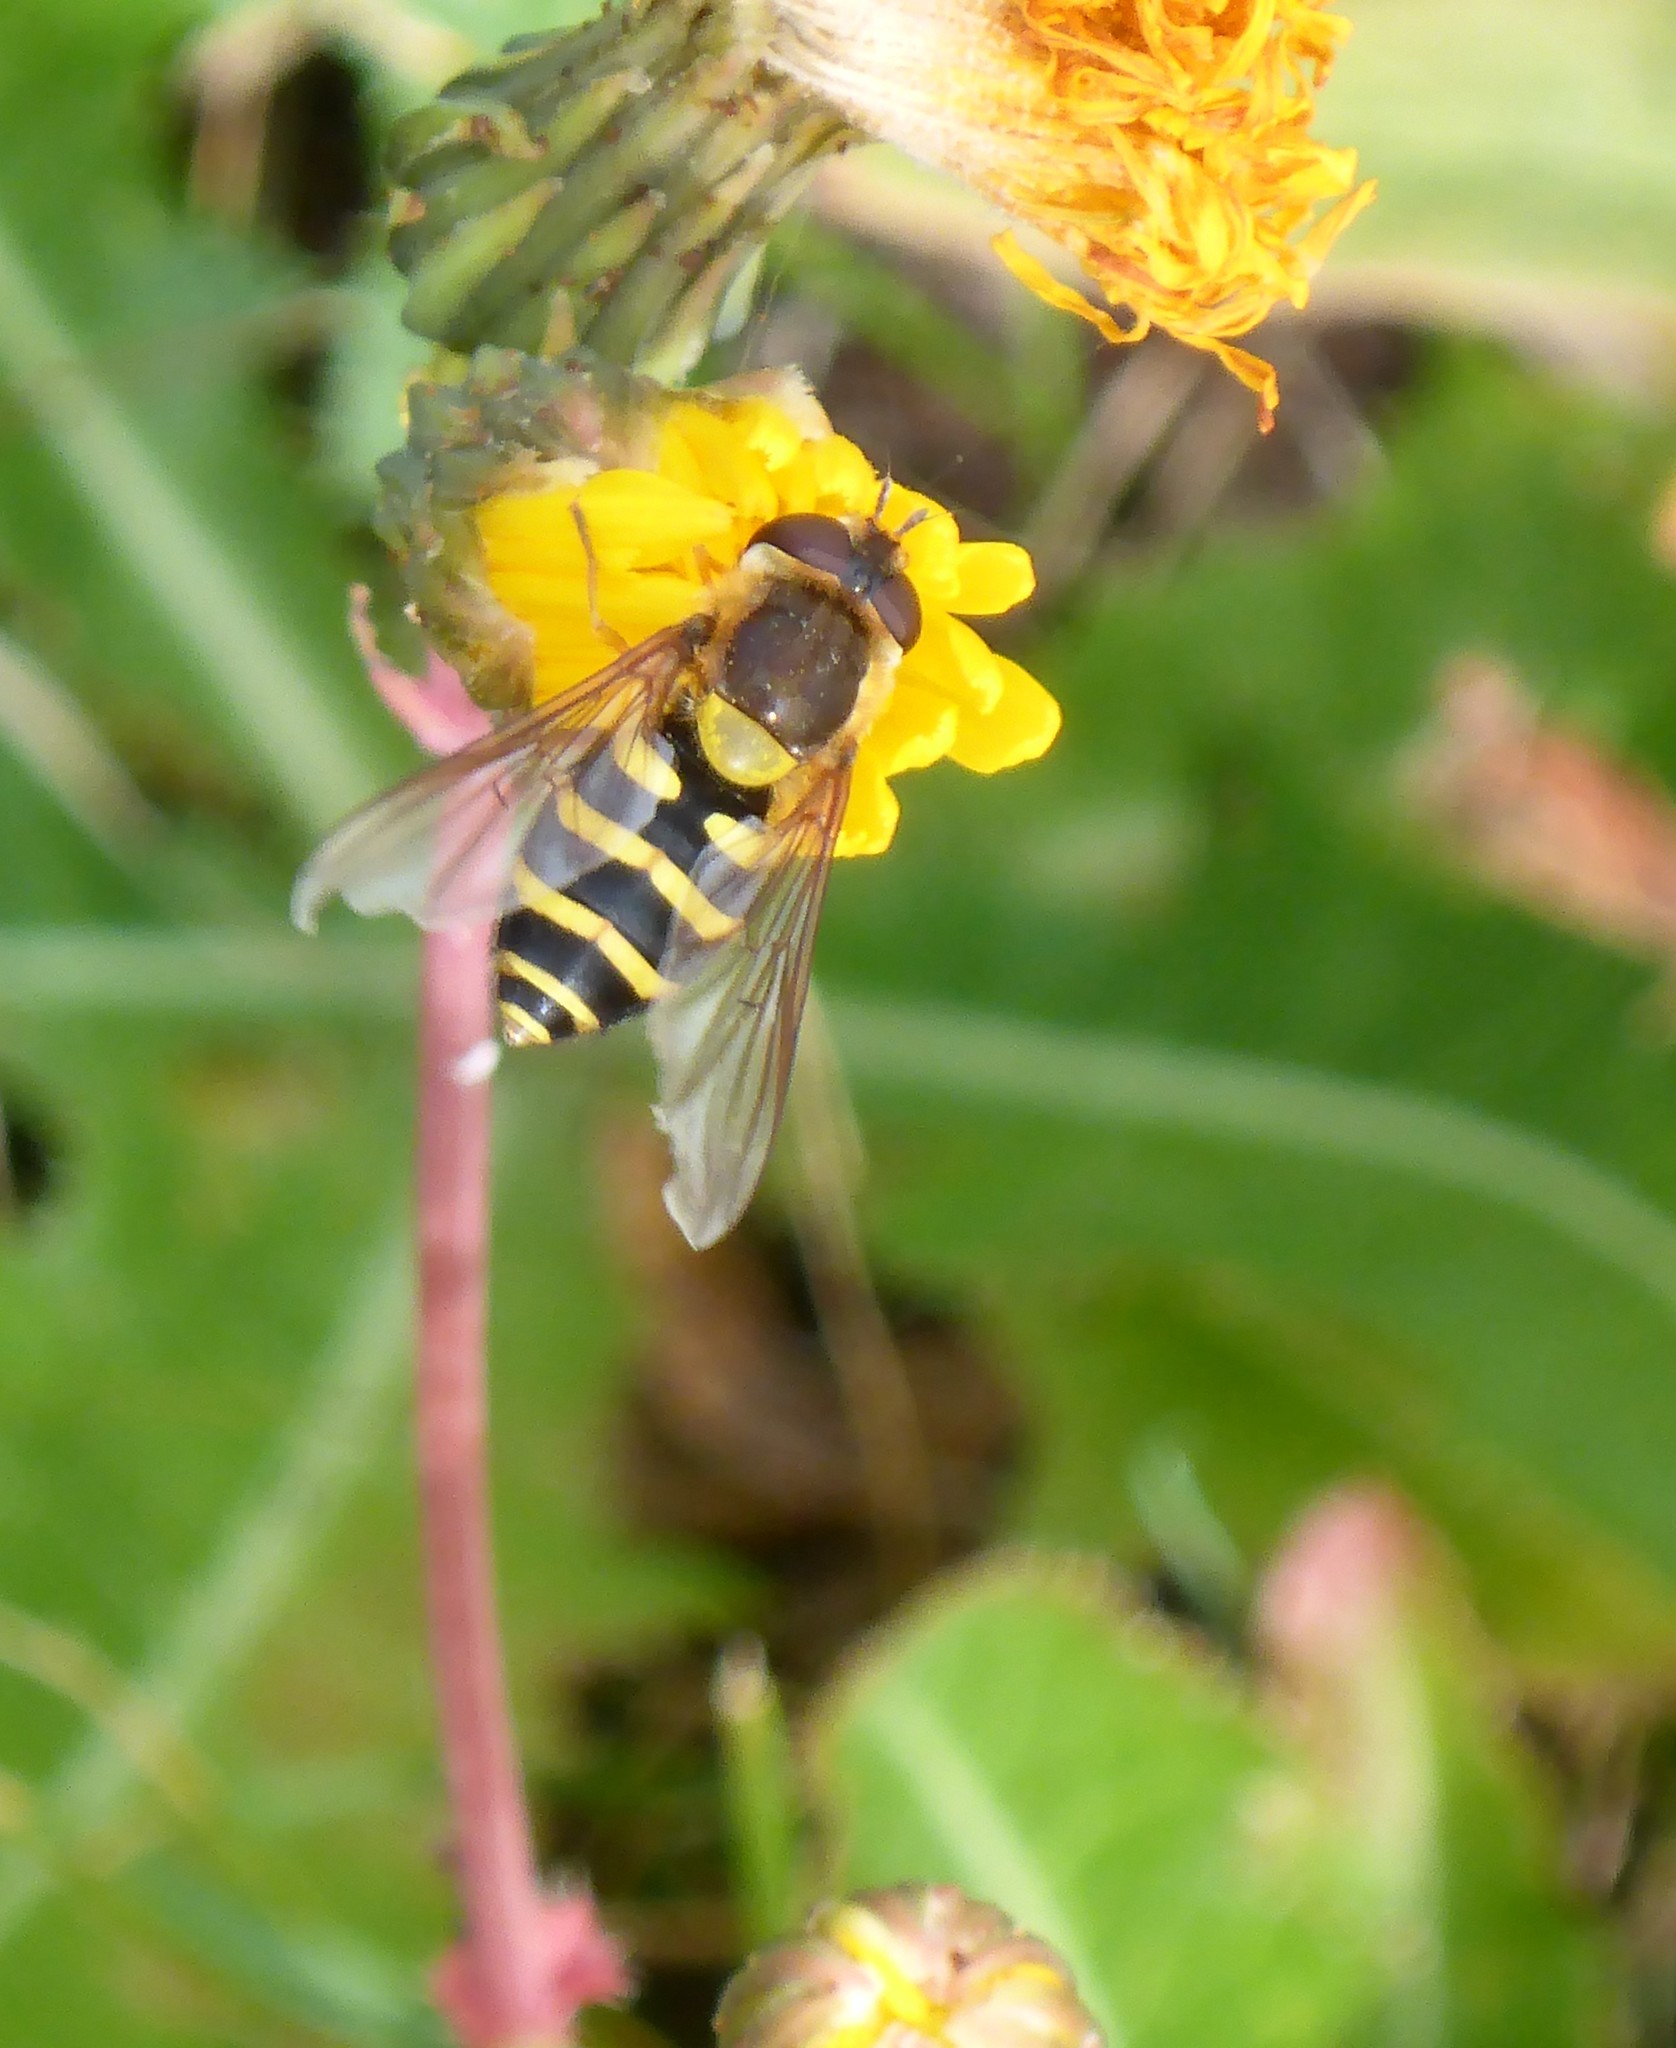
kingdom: Animalia
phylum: Arthropoda
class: Insecta
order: Diptera
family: Syrphidae
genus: Syrphus
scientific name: Syrphus
